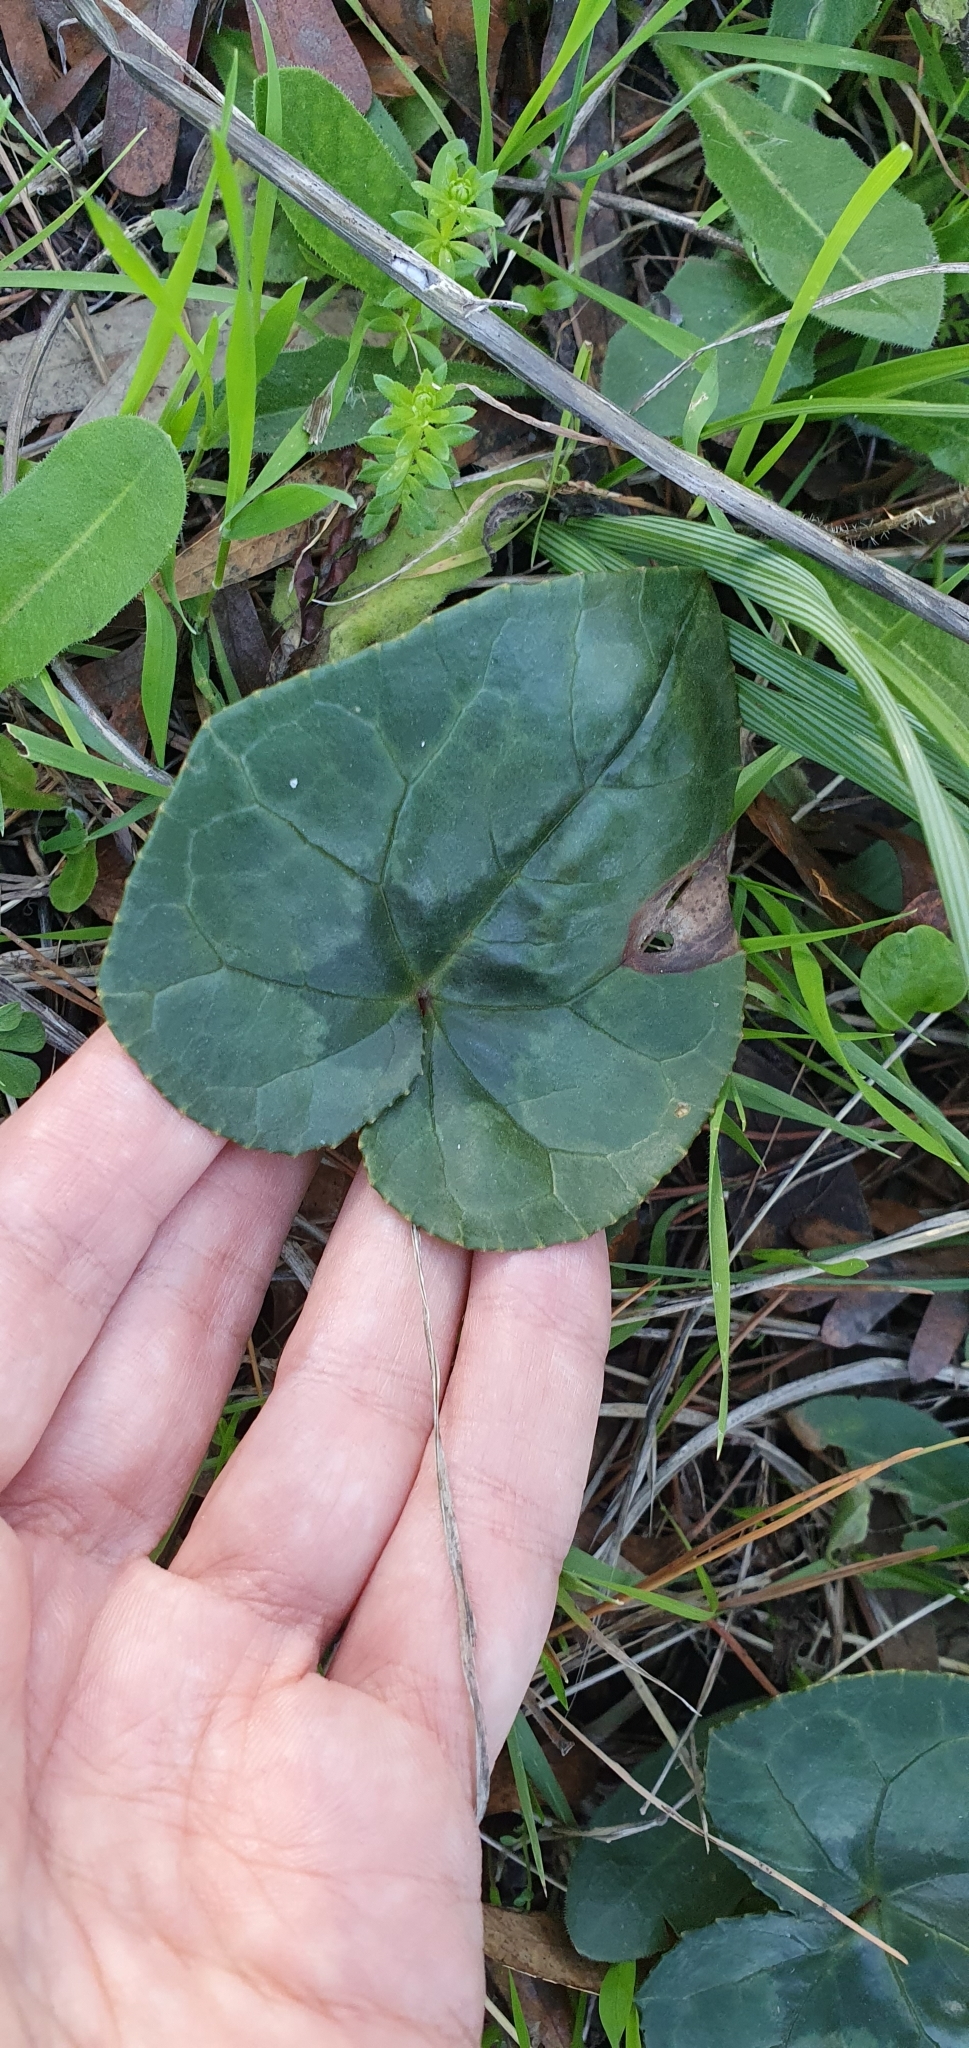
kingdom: Plantae
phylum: Tracheophyta
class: Magnoliopsida
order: Ericales
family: Primulaceae
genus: Cyclamen
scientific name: Cyclamen africanum
